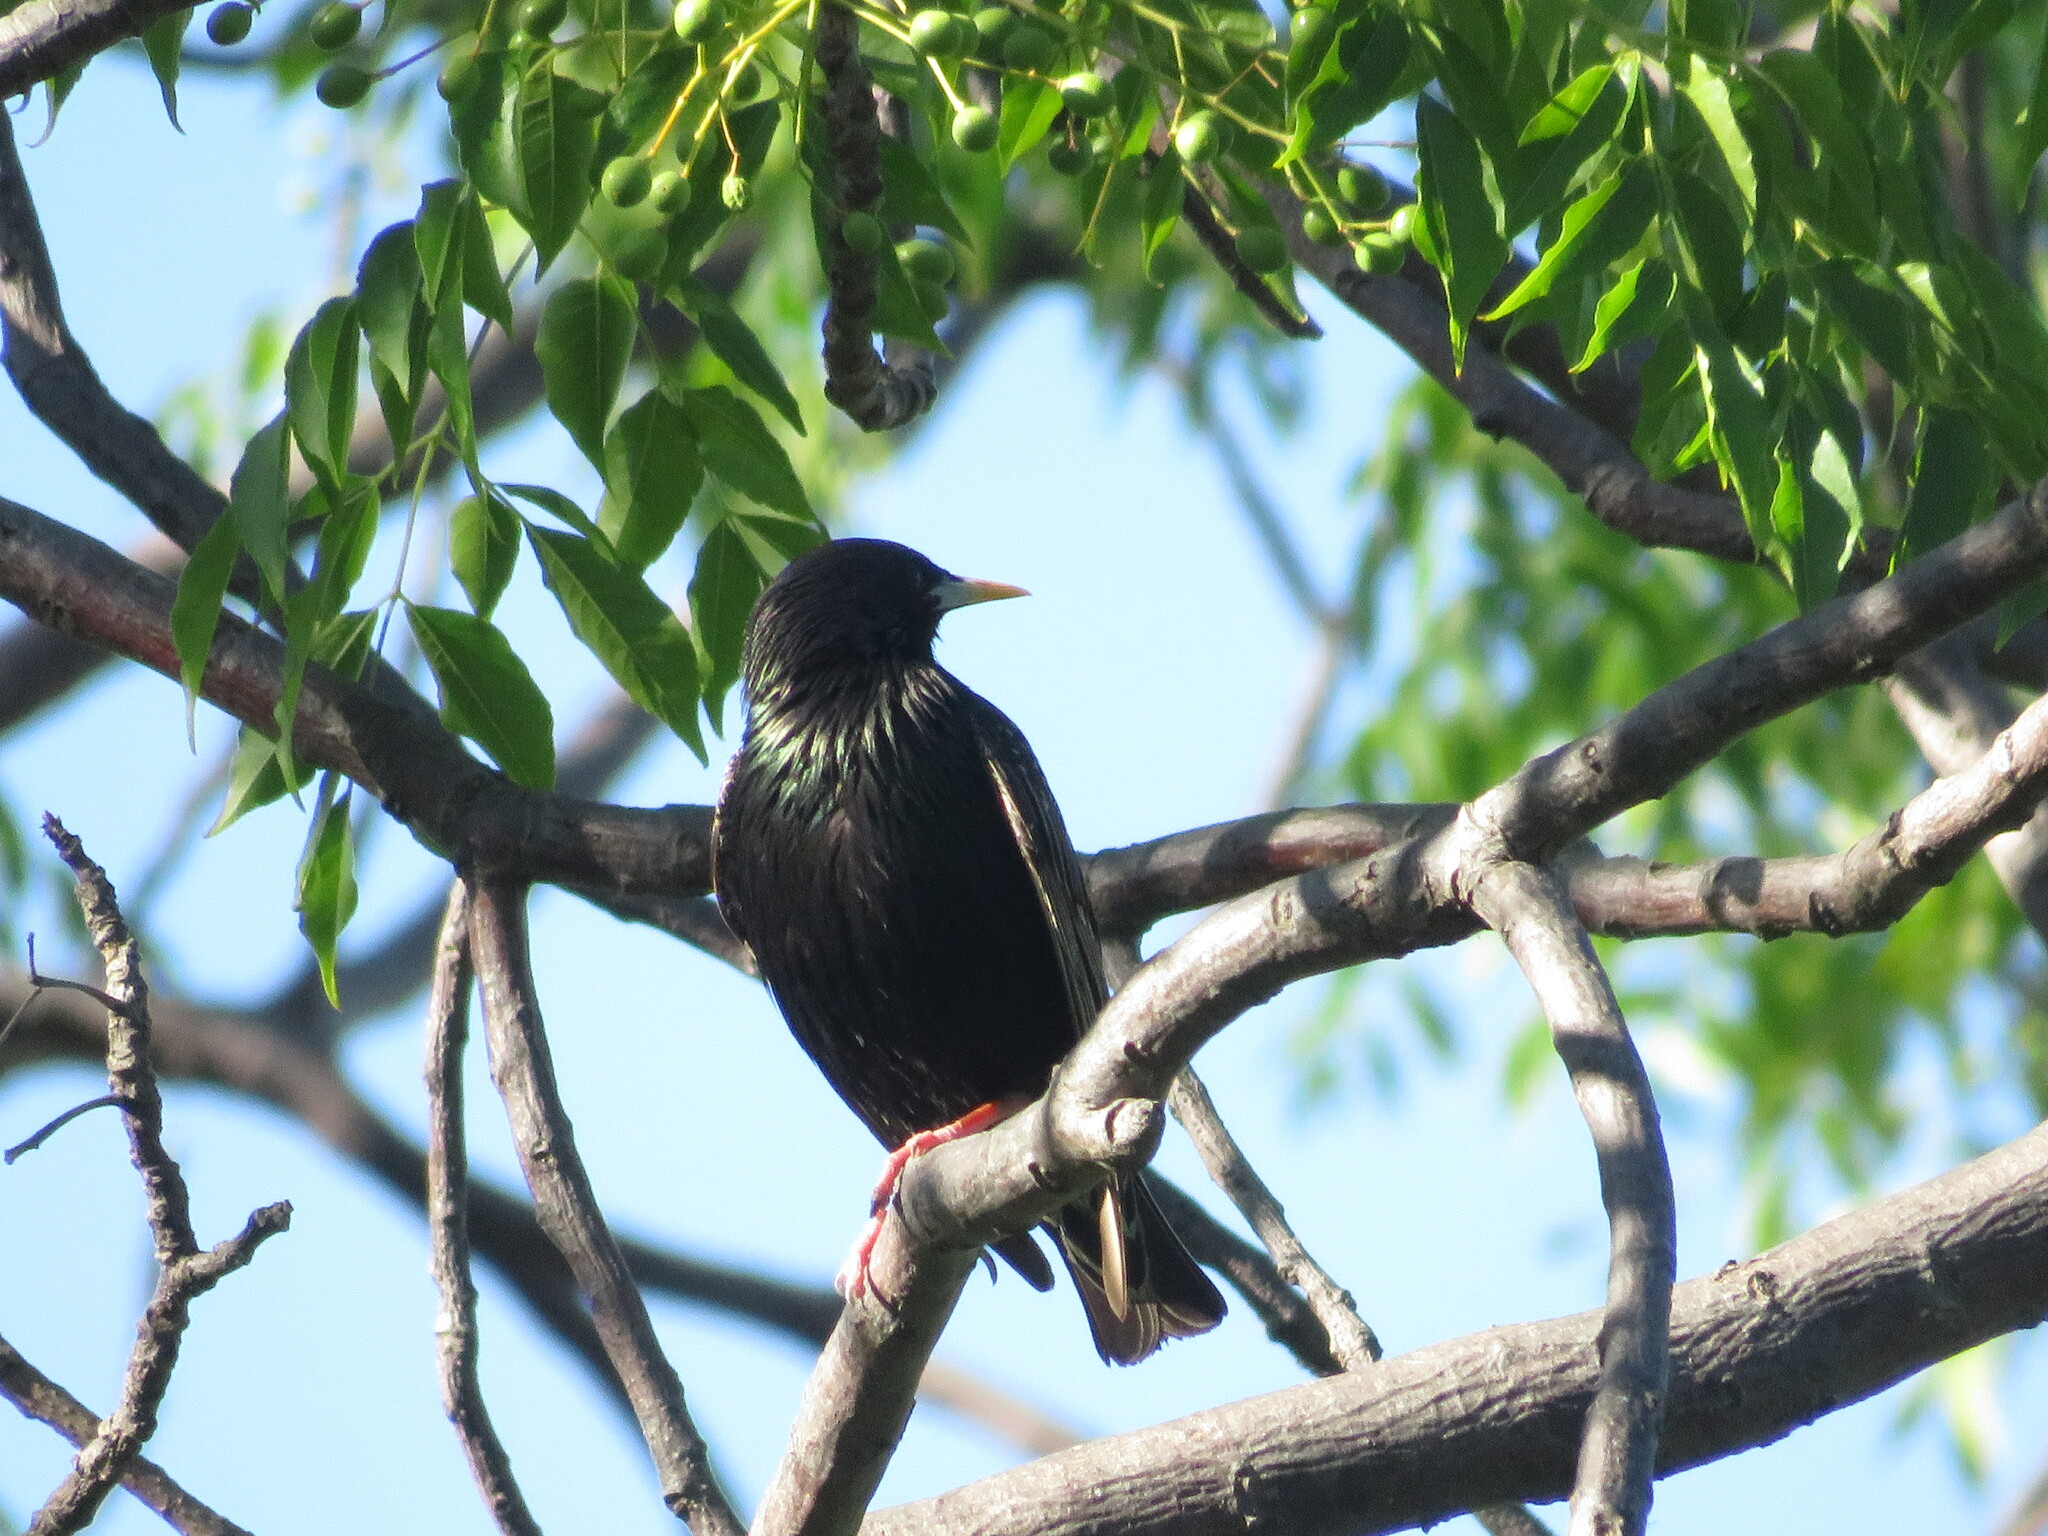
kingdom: Animalia
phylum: Chordata
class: Aves
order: Passeriformes
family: Sturnidae
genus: Sturnus
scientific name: Sturnus vulgaris
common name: Common starling
